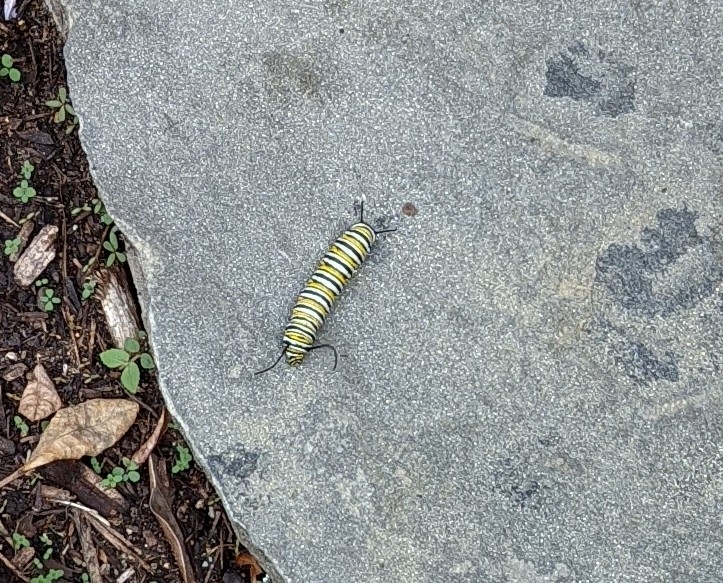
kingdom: Animalia
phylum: Arthropoda
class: Insecta
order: Lepidoptera
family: Nymphalidae
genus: Danaus
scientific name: Danaus plexippus
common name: Monarch
